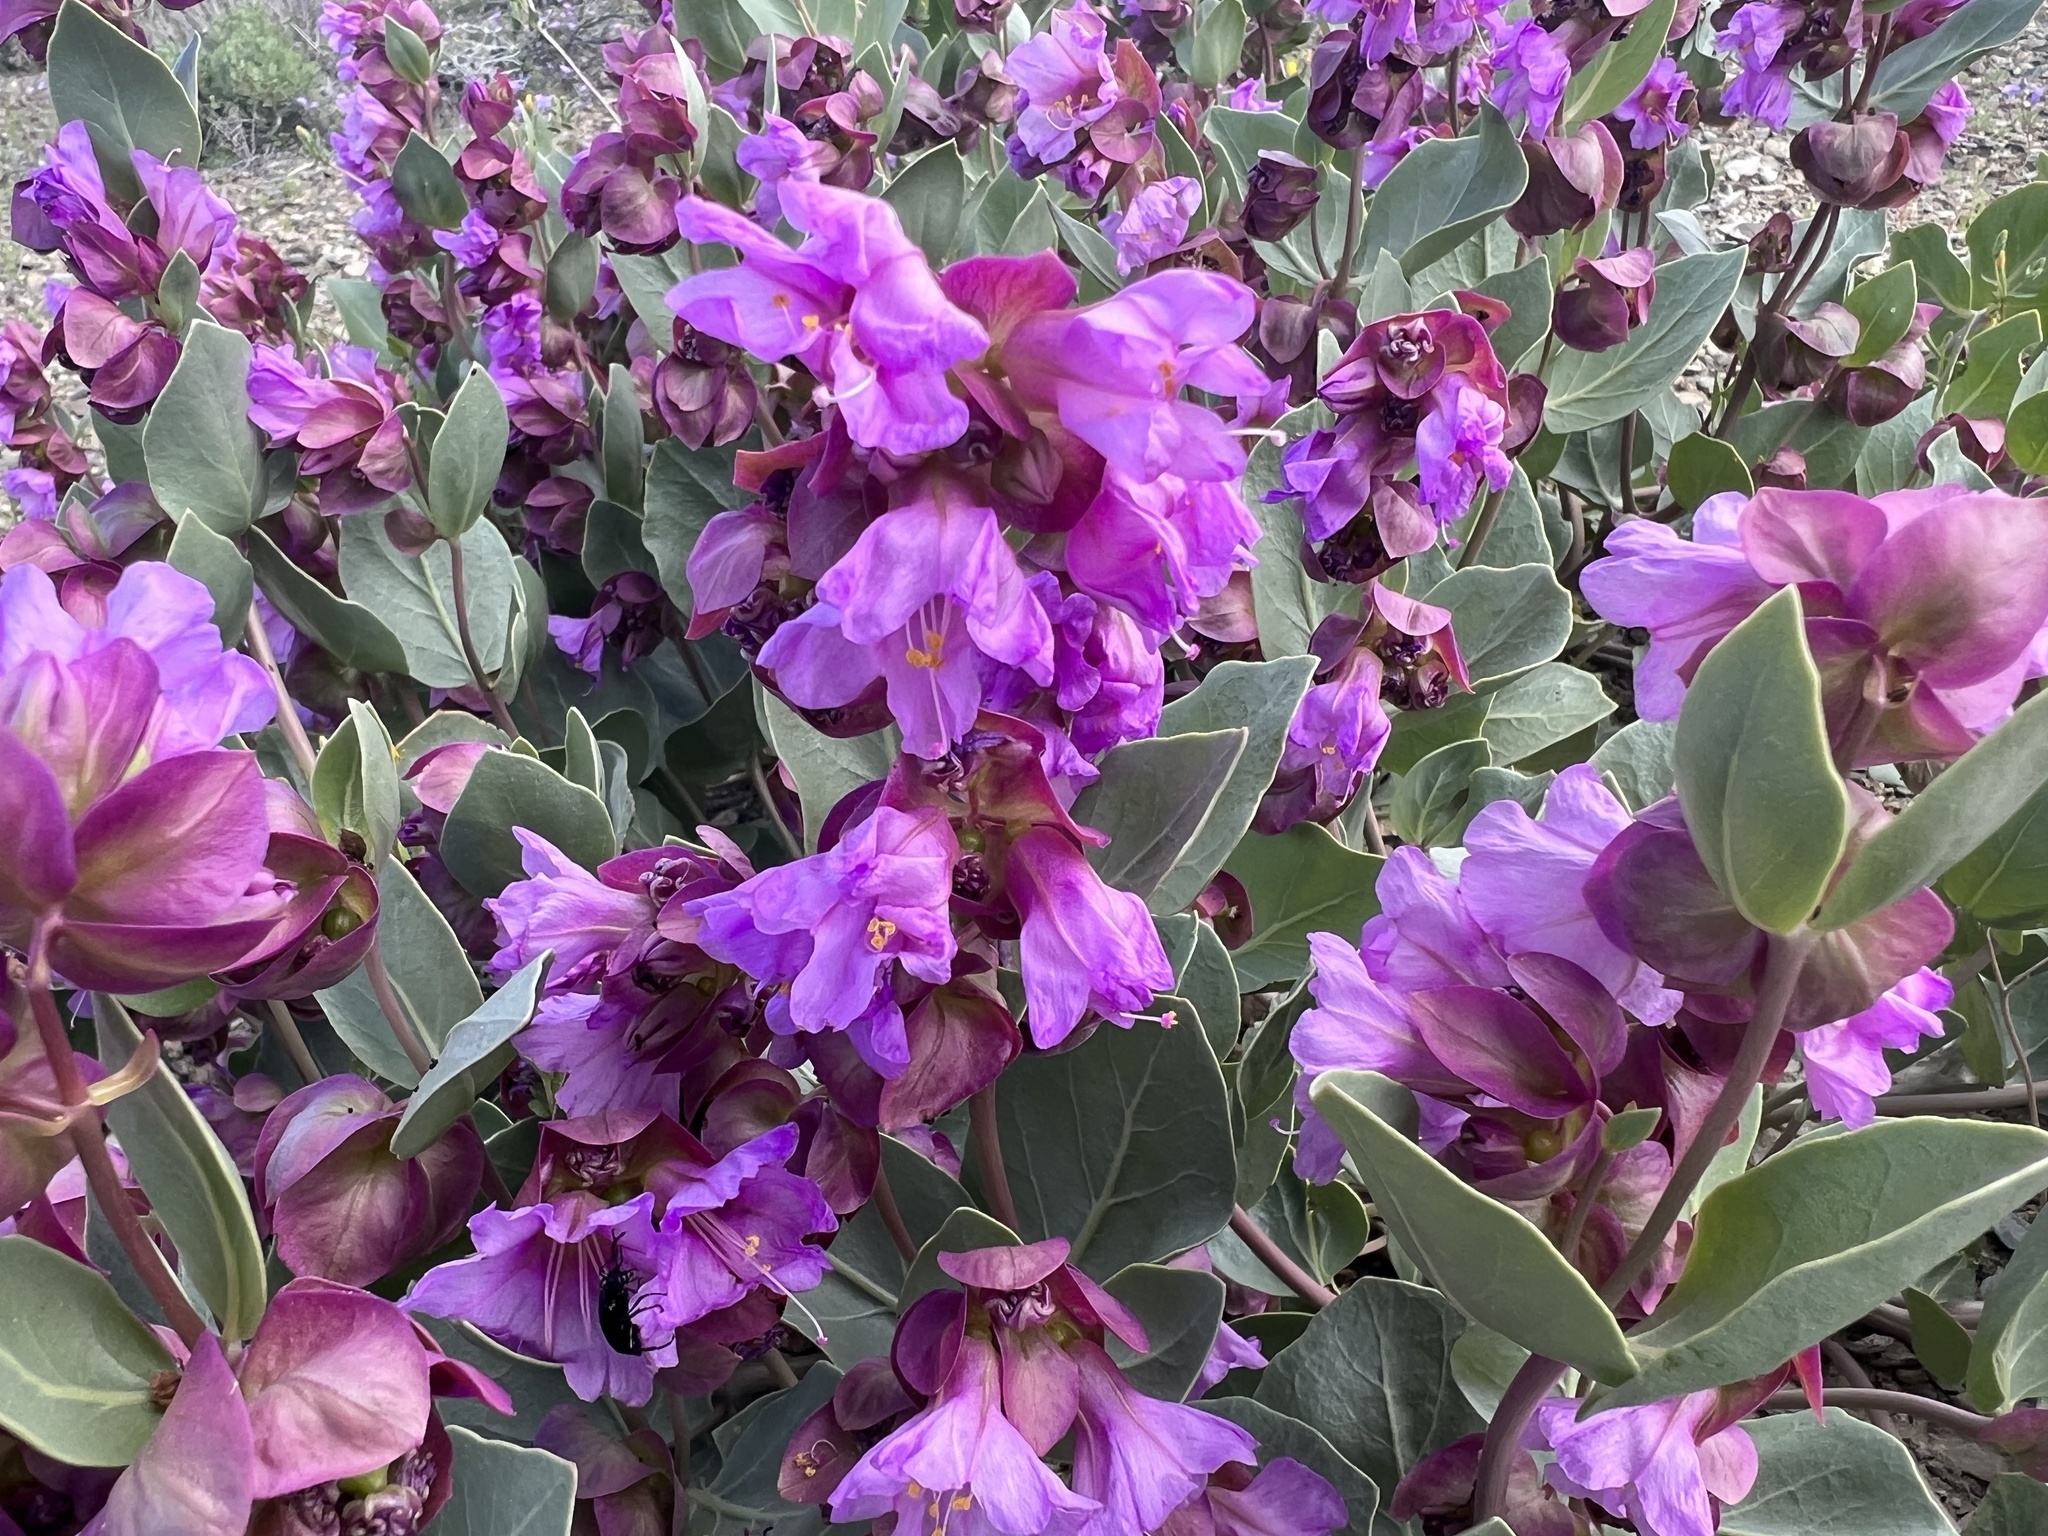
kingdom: Plantae
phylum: Tracheophyta
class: Magnoliopsida
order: Caryophyllales
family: Nyctaginaceae
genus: Mirabilis
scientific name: Mirabilis alipes
